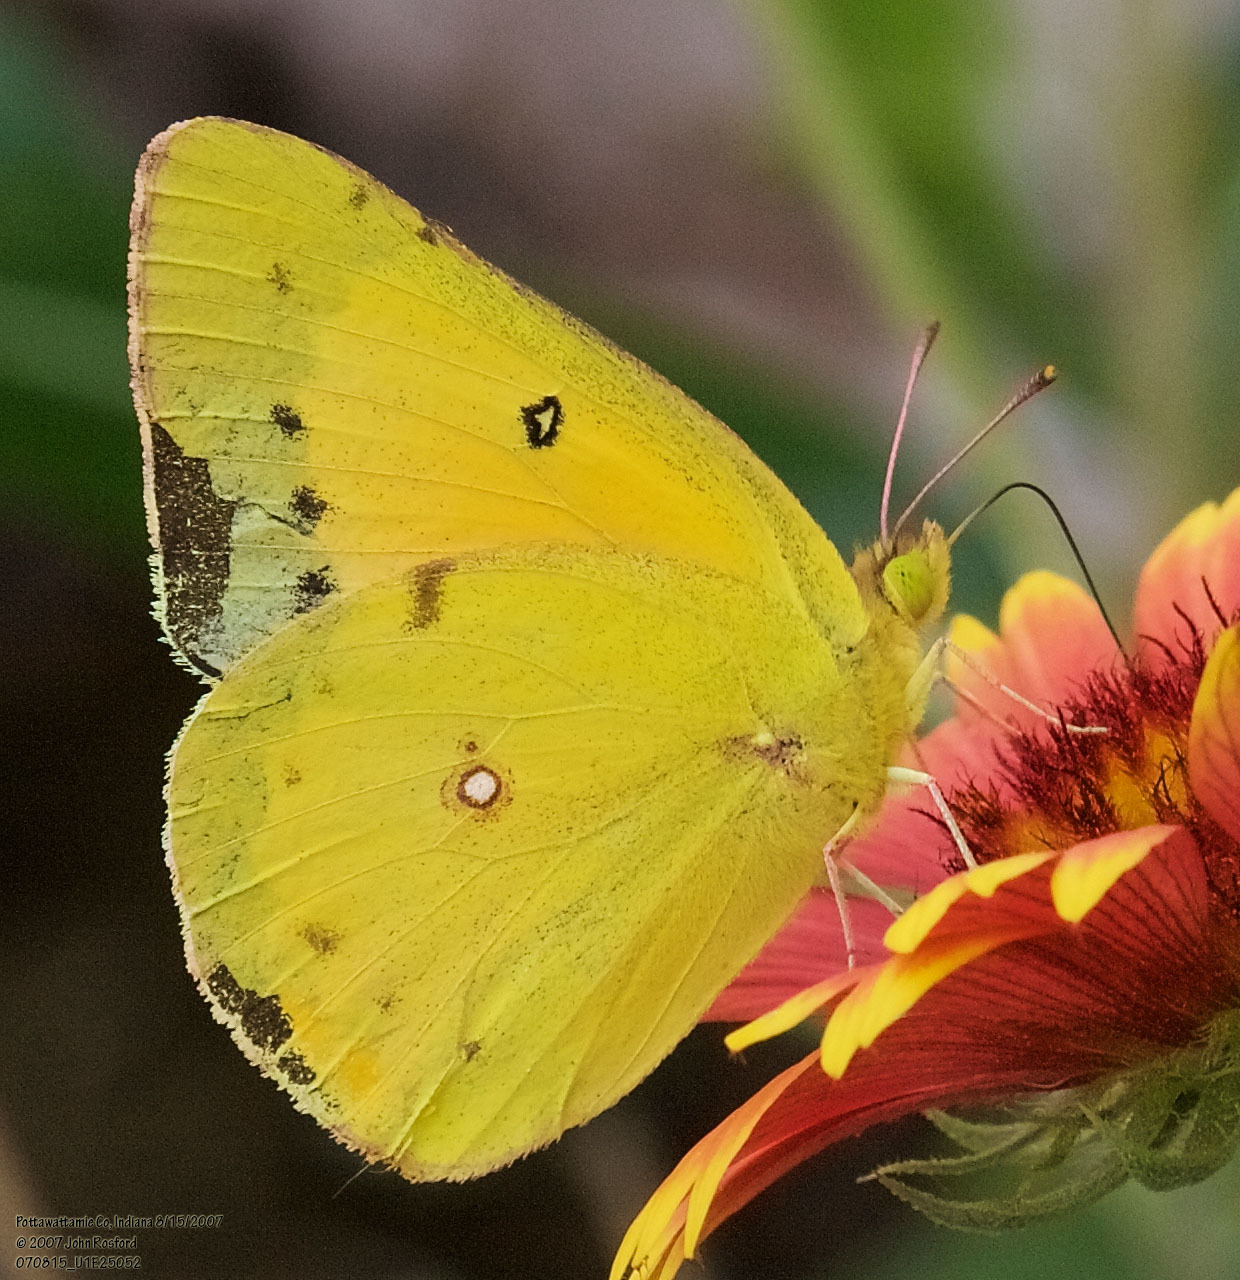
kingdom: Animalia
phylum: Arthropoda
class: Insecta
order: Lepidoptera
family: Pieridae
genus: Colias
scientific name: Colias eurytheme
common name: Alfalfa butterfly
